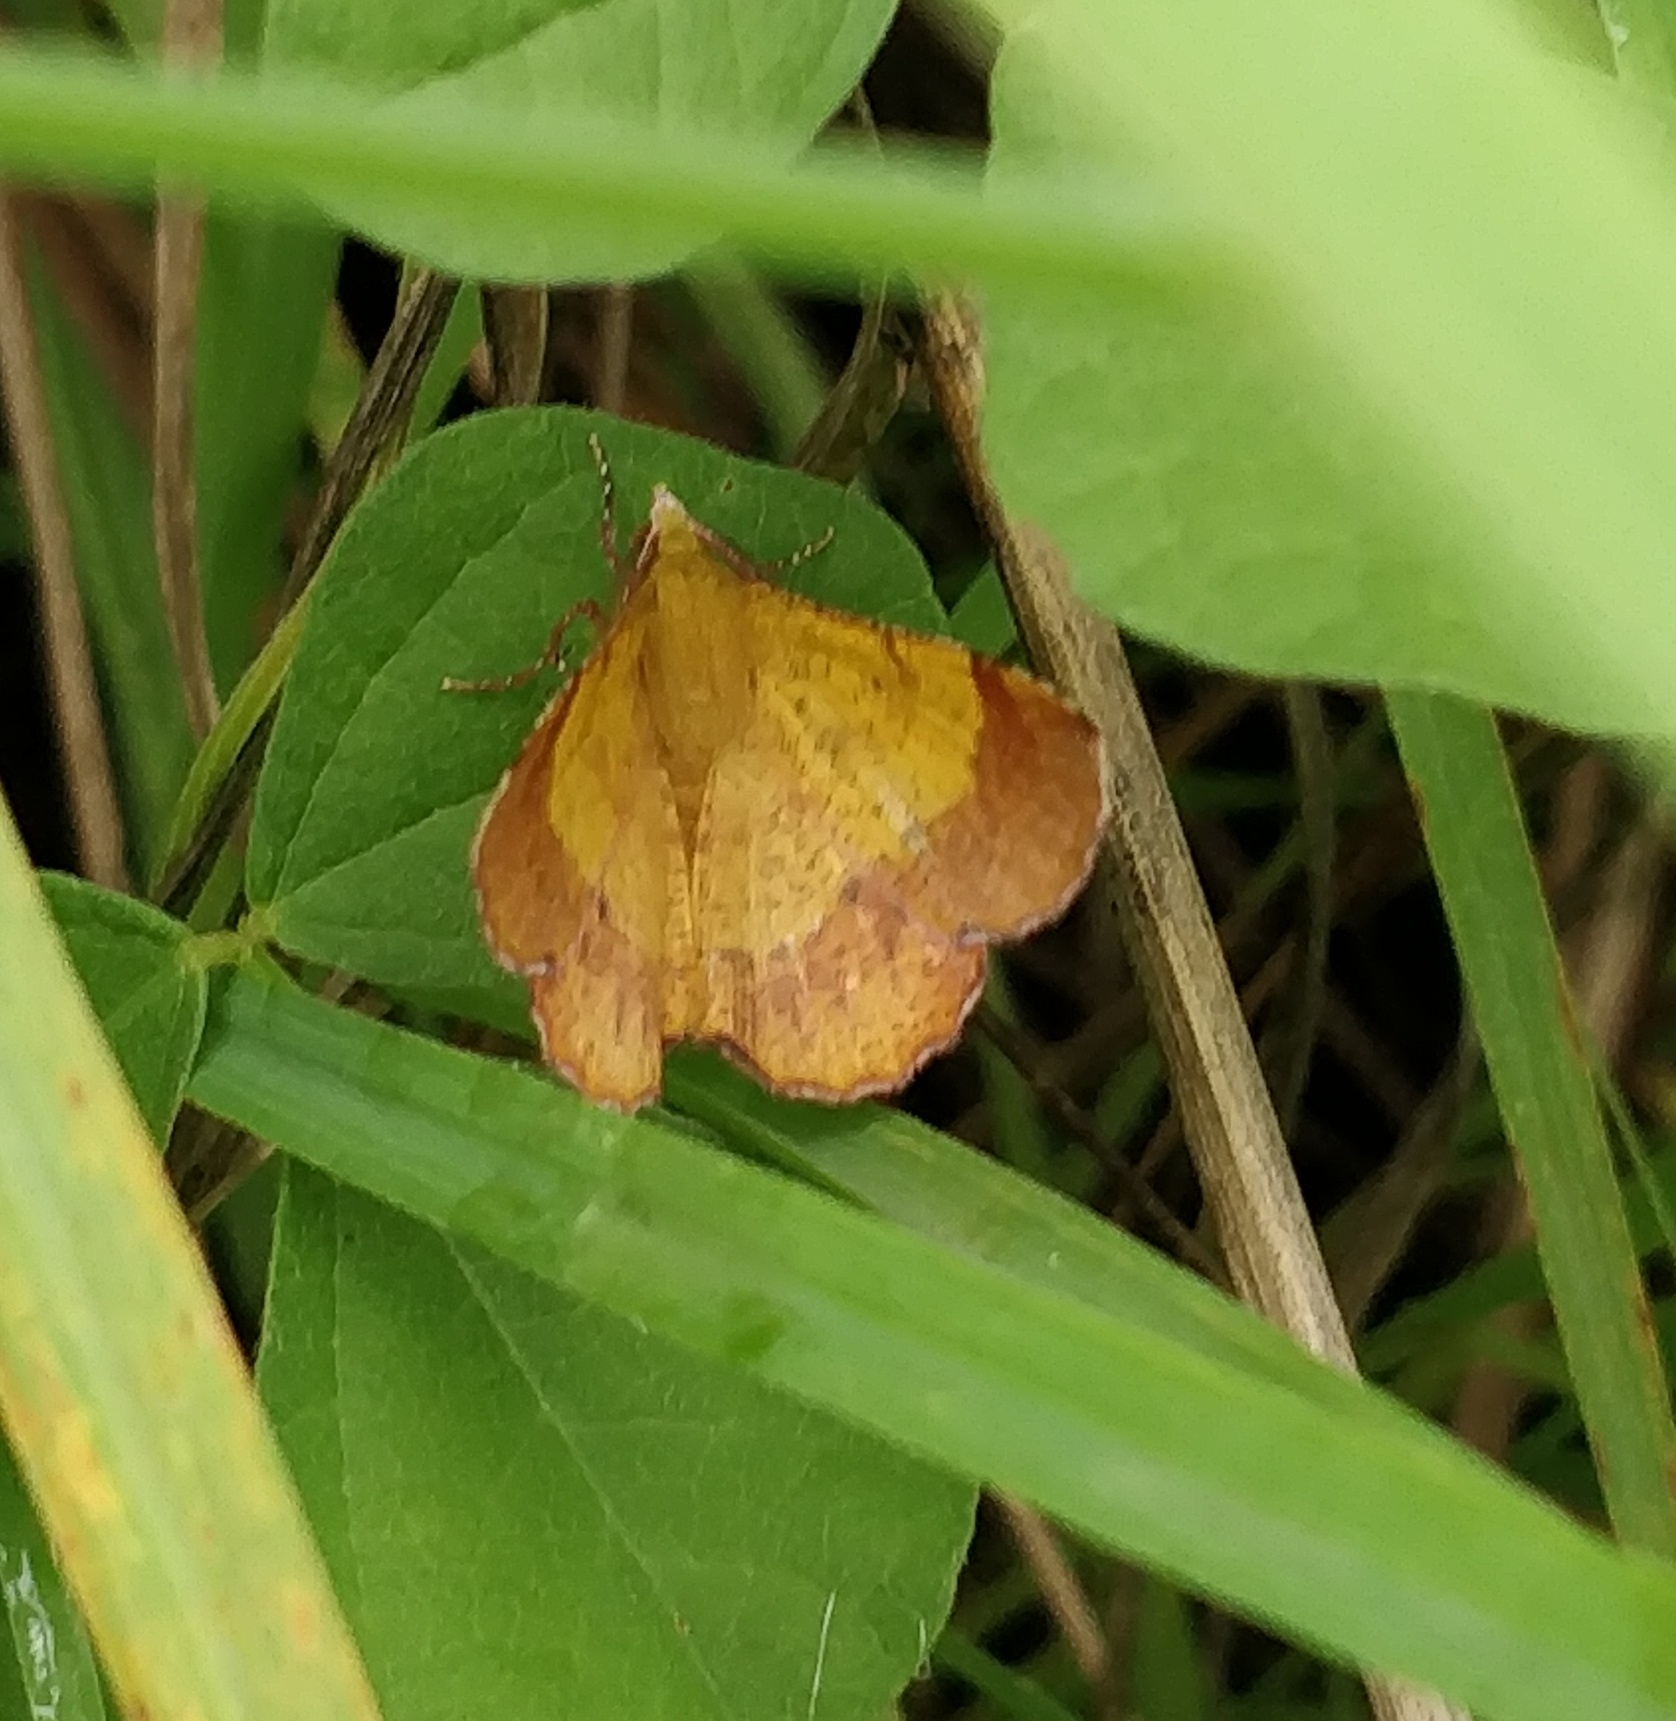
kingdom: Animalia
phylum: Arthropoda
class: Insecta
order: Lepidoptera
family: Geometridae
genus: Hyperythra
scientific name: Hyperythra lutea
